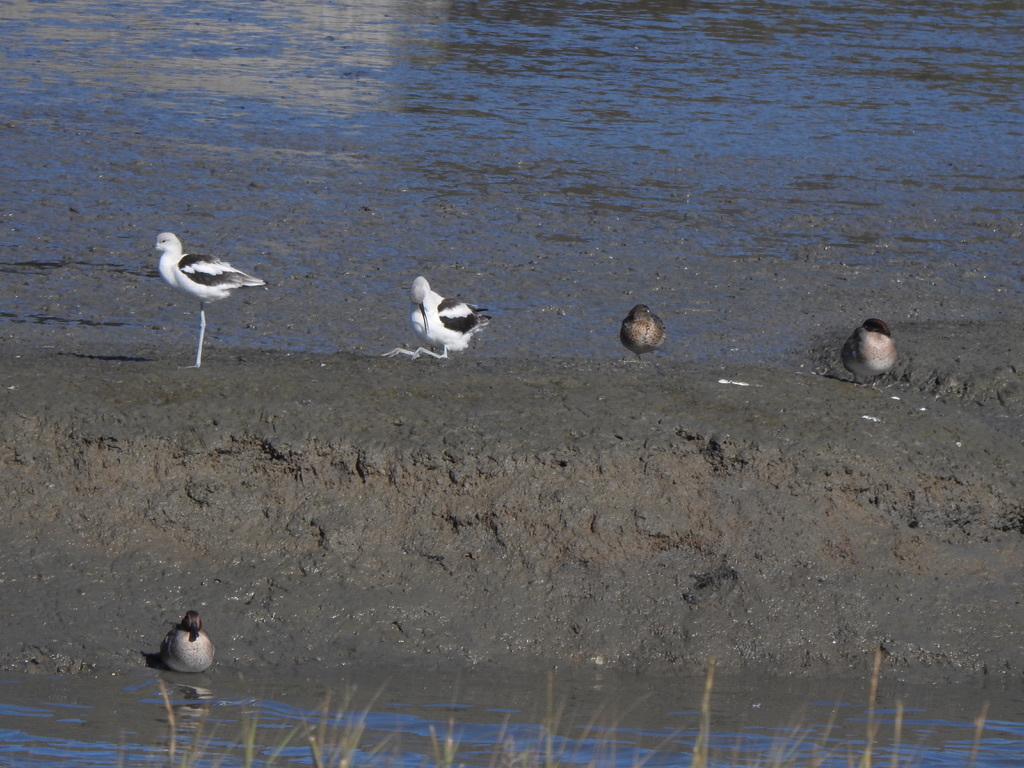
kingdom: Animalia
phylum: Chordata
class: Aves
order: Anseriformes
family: Anatidae
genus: Anas
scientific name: Anas crecca
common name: Eurasian teal
